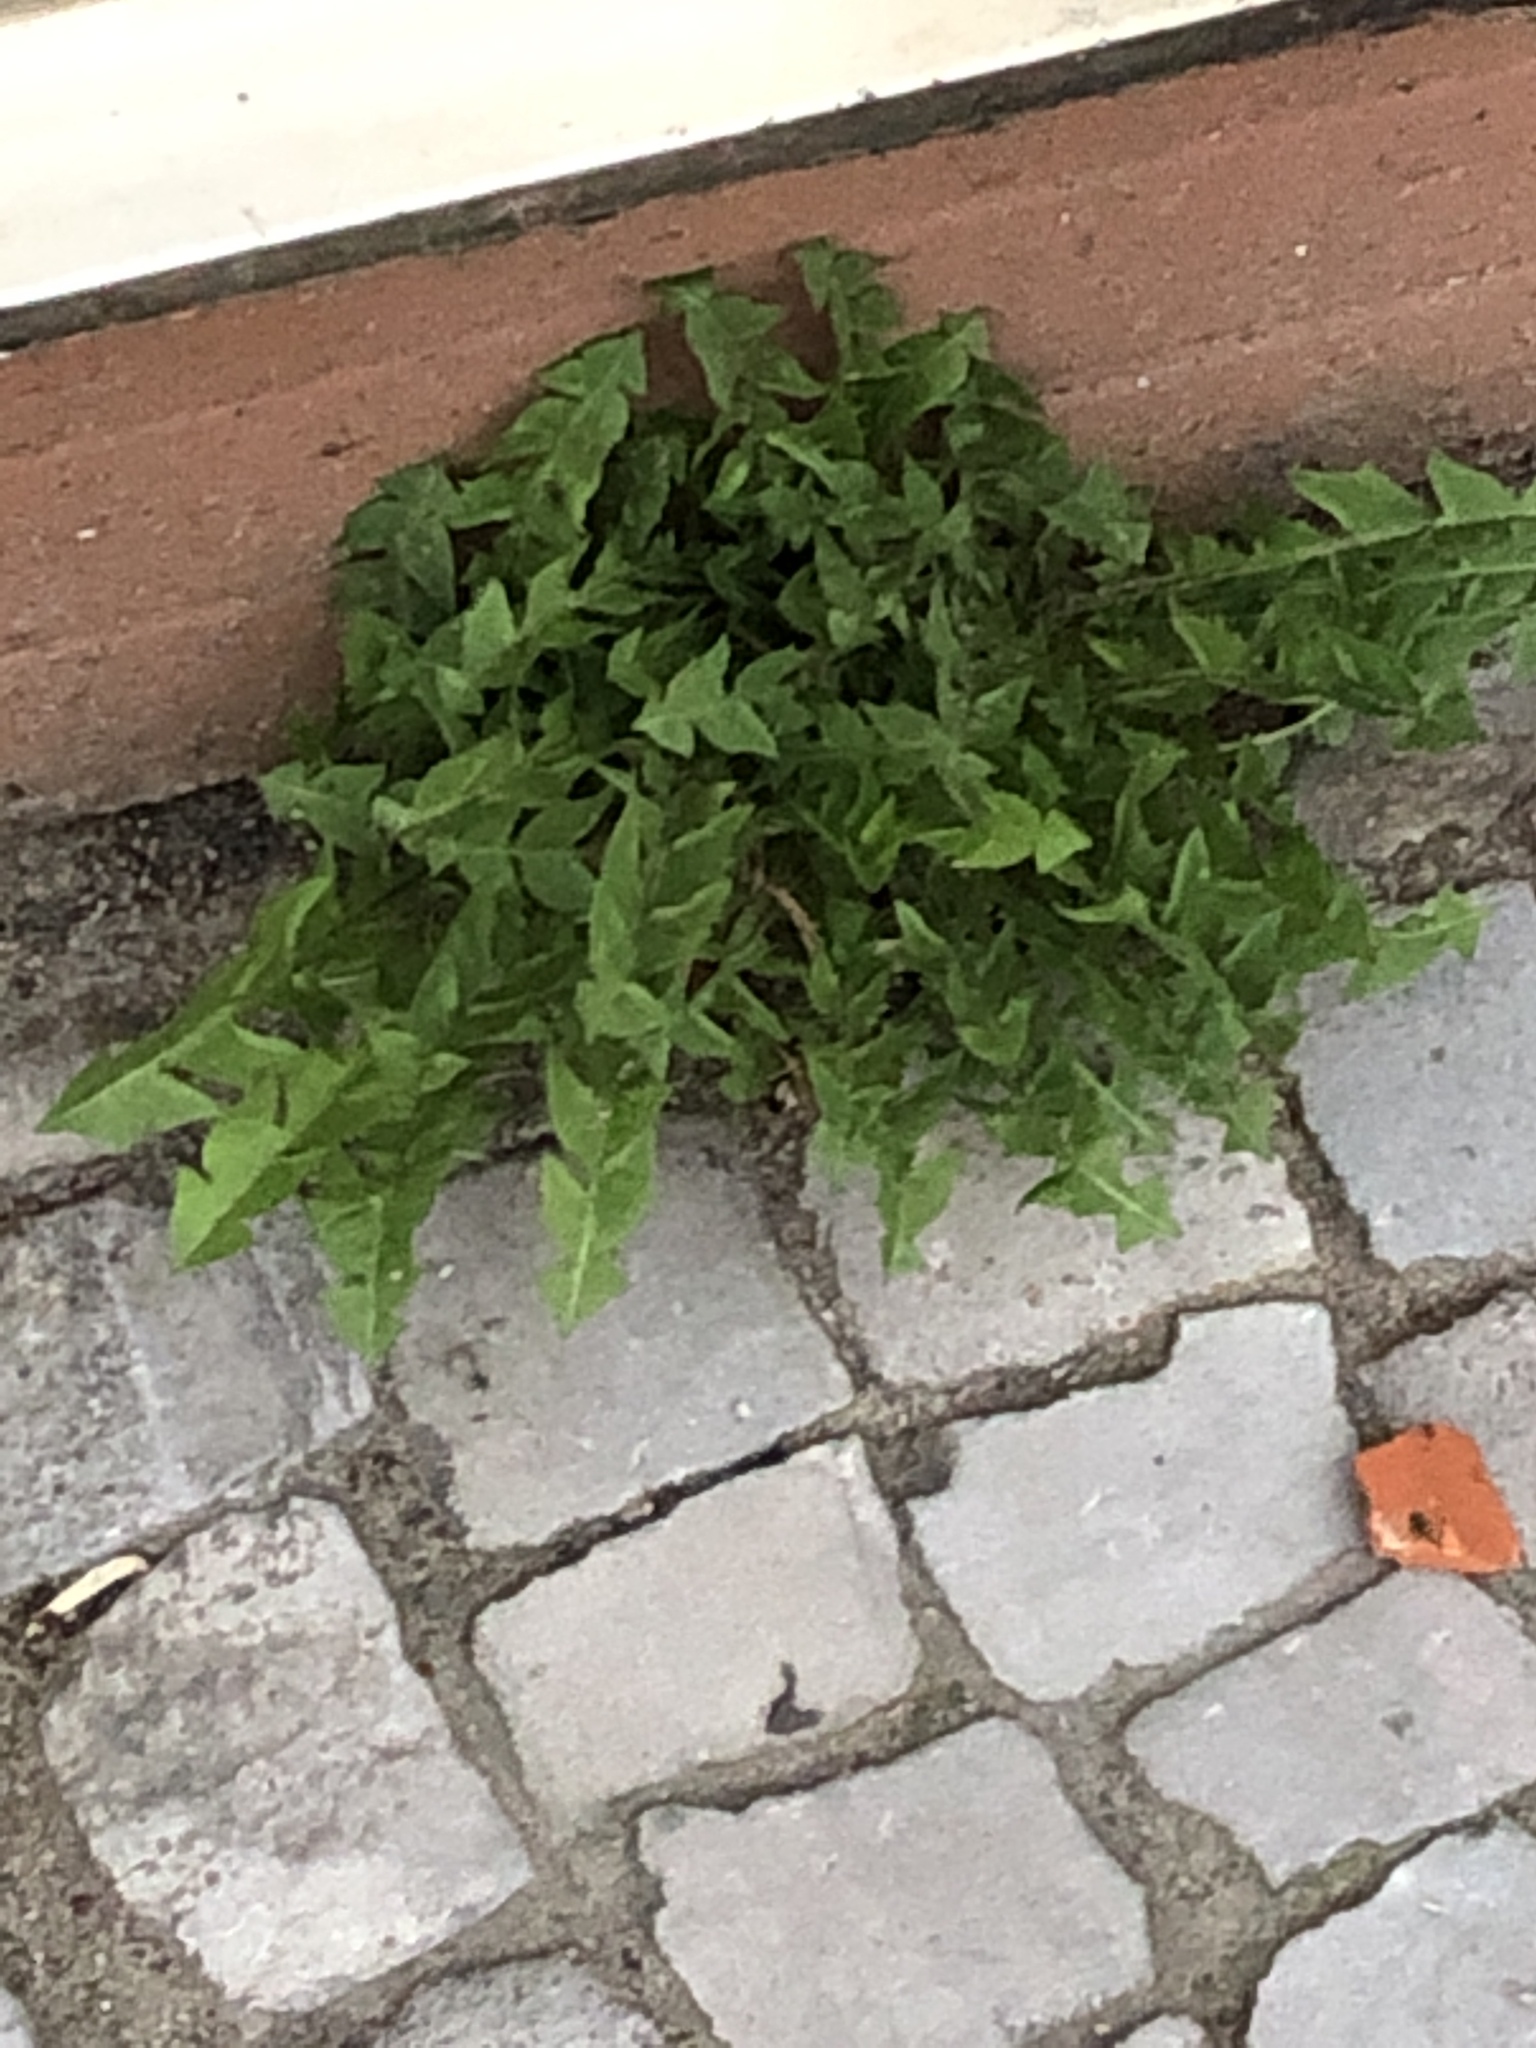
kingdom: Plantae
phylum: Tracheophyta
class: Magnoliopsida
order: Asterales
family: Asteraceae
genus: Taraxacum
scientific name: Taraxacum officinale
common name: Common dandelion
